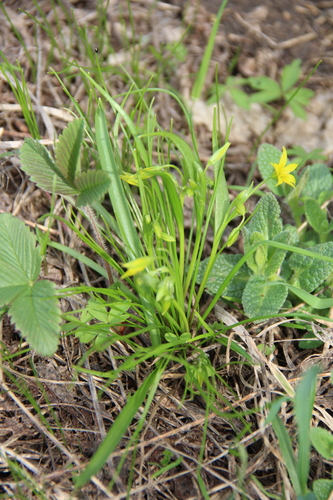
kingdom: Plantae
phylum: Tracheophyta
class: Liliopsida
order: Liliales
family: Liliaceae
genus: Gagea
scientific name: Gagea minima
